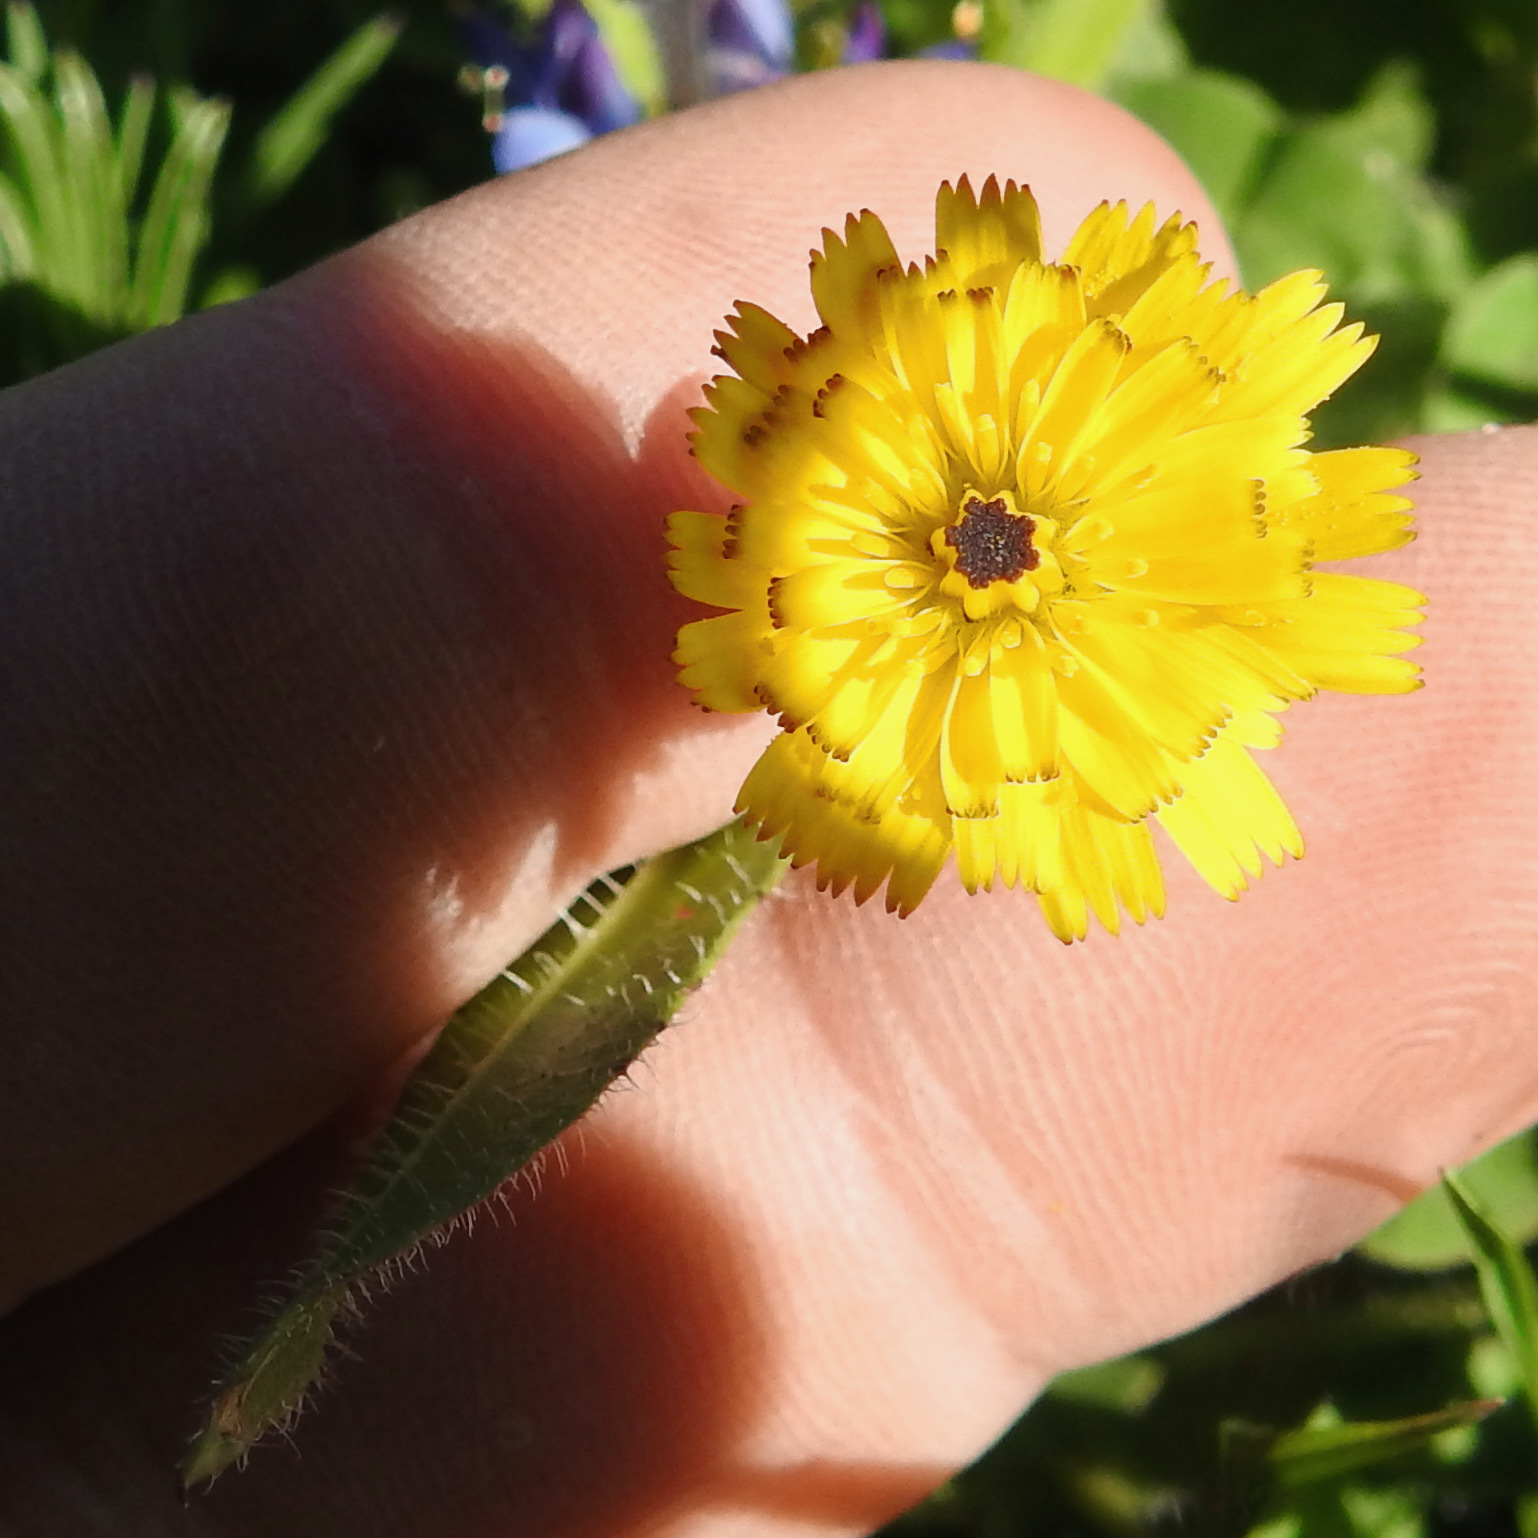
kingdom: Plantae
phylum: Tracheophyta
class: Magnoliopsida
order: Asterales
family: Asteraceae
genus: Hedypnois
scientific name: Hedypnois rhagadioloides
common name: Cretan weed
